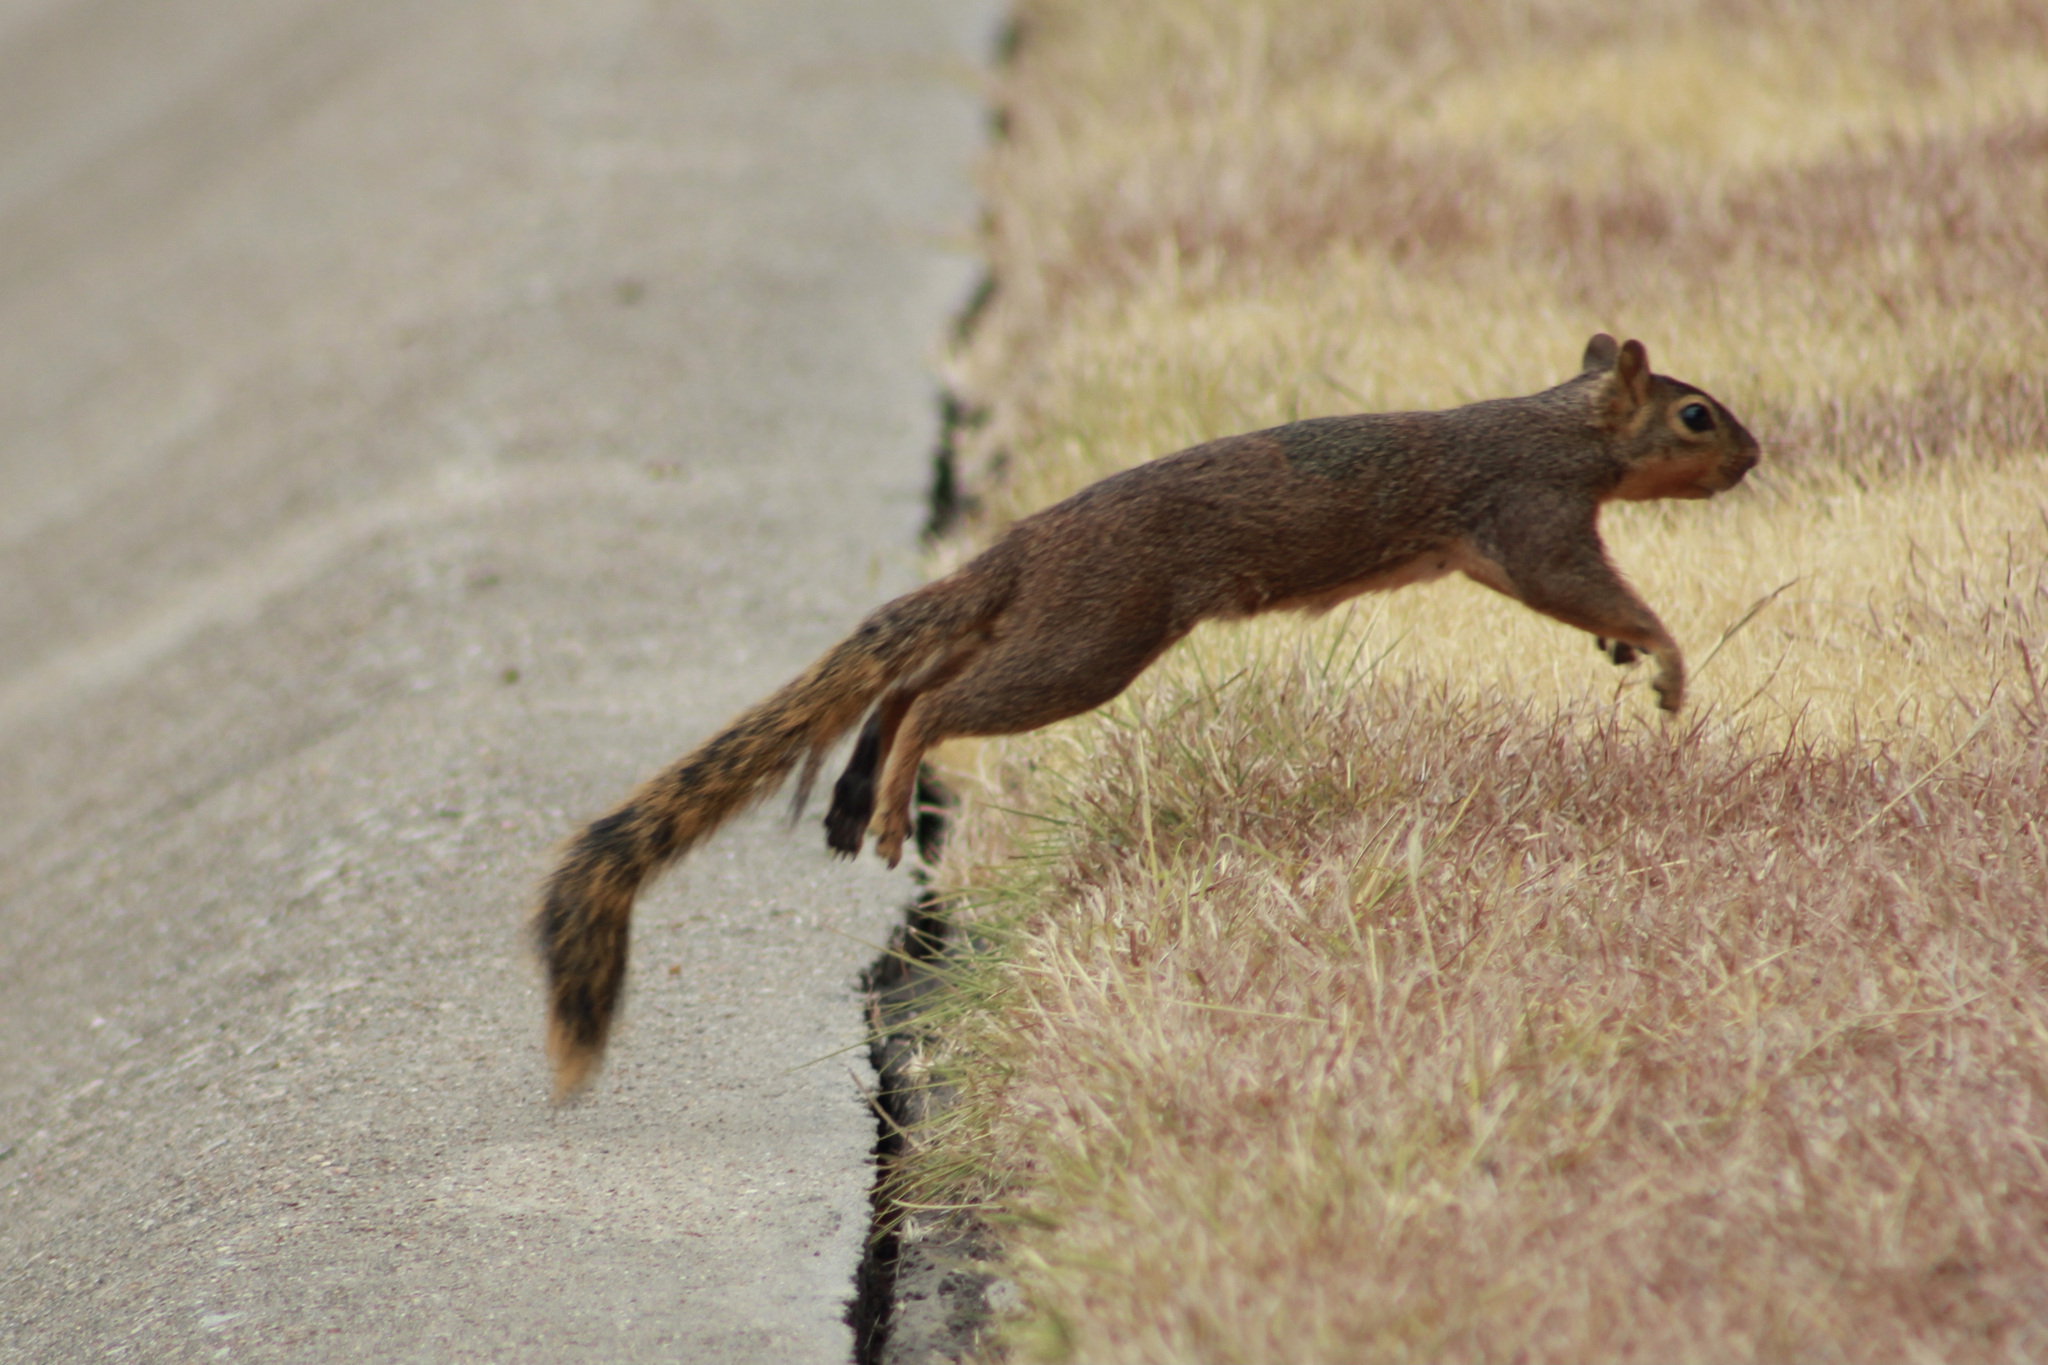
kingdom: Animalia
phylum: Chordata
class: Mammalia
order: Rodentia
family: Sciuridae
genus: Sciurus
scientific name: Sciurus niger
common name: Fox squirrel
